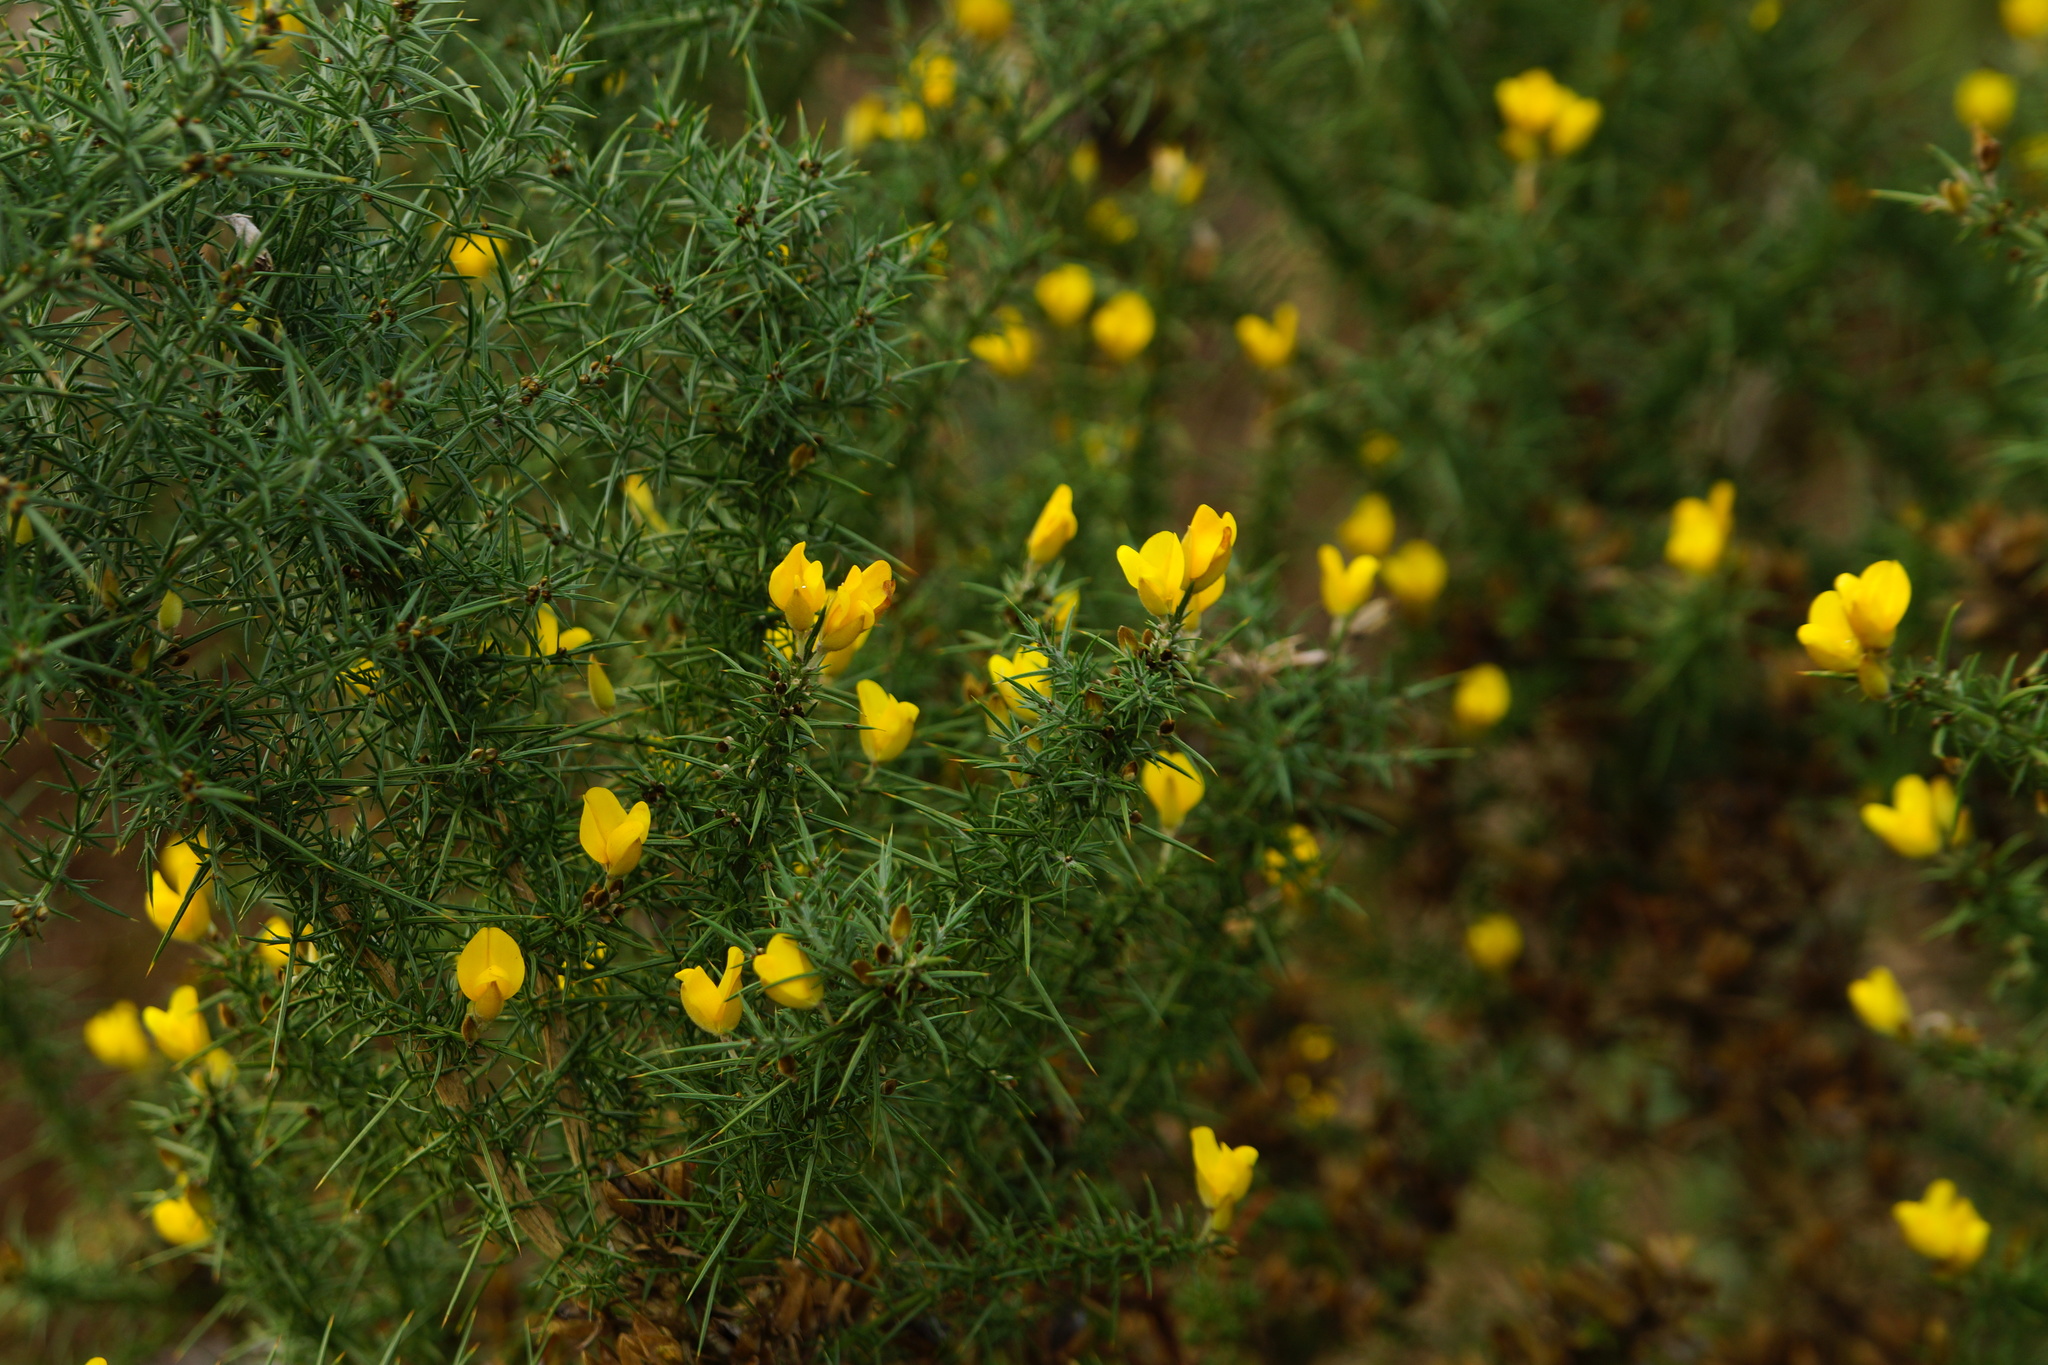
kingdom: Plantae
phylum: Tracheophyta
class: Magnoliopsida
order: Fabales
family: Fabaceae
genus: Ulex
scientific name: Ulex europaeus
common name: Common gorse
